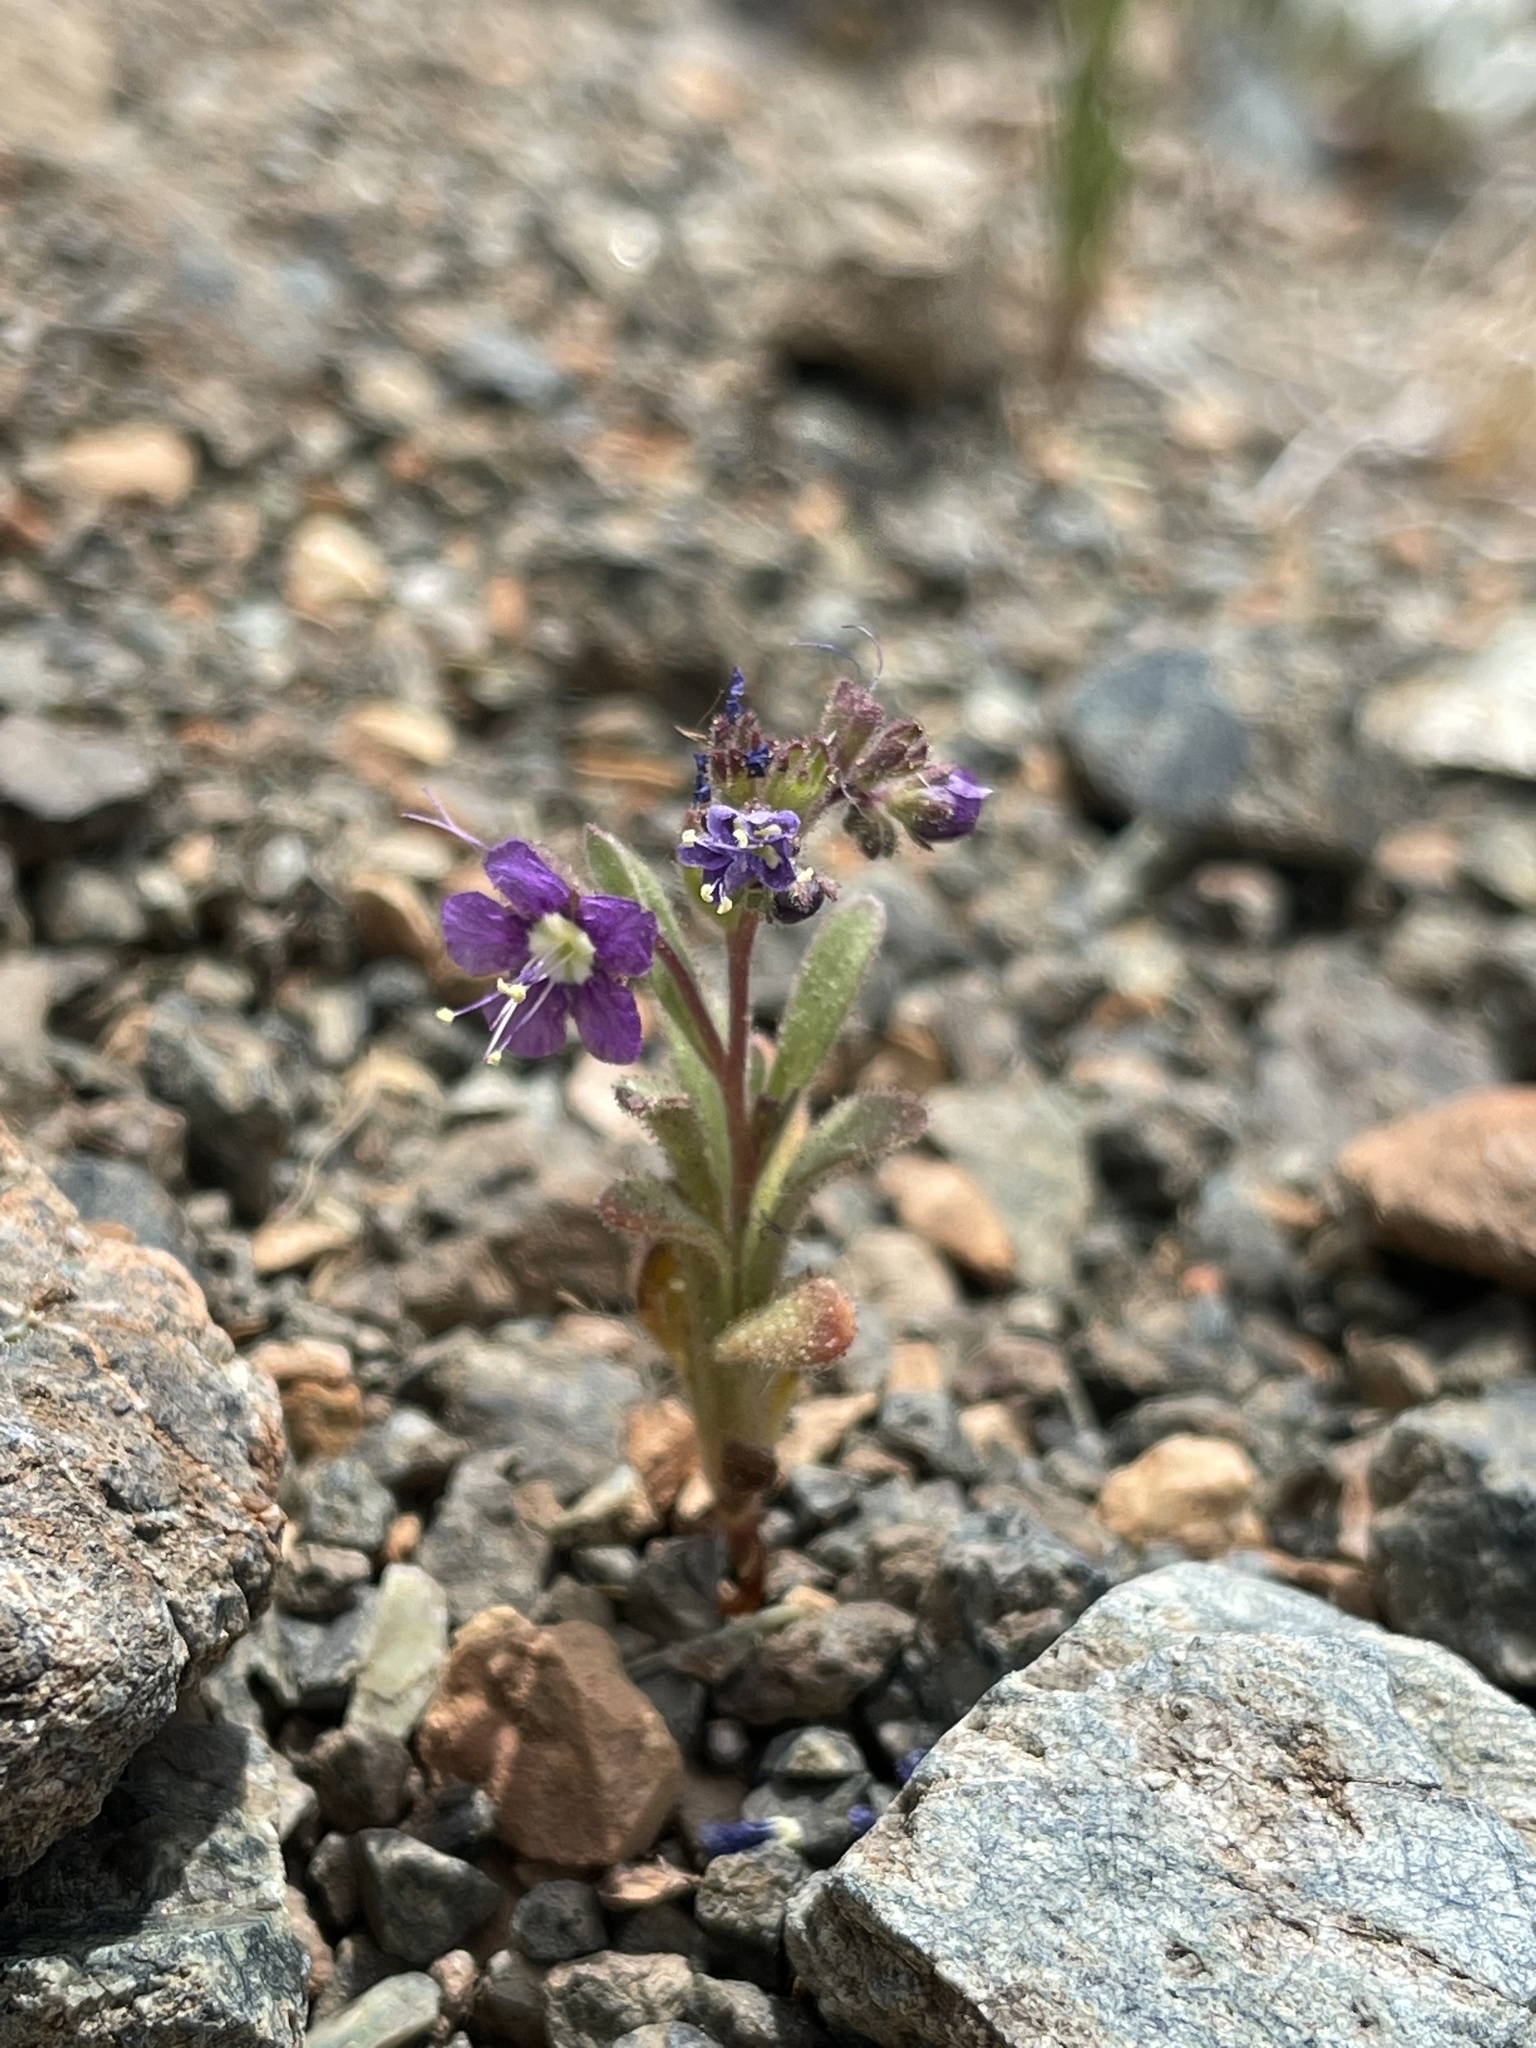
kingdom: Plantae
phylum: Tracheophyta
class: Magnoliopsida
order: Boraginales
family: Hydrophyllaceae
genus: Phacelia
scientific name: Phacelia greenei
